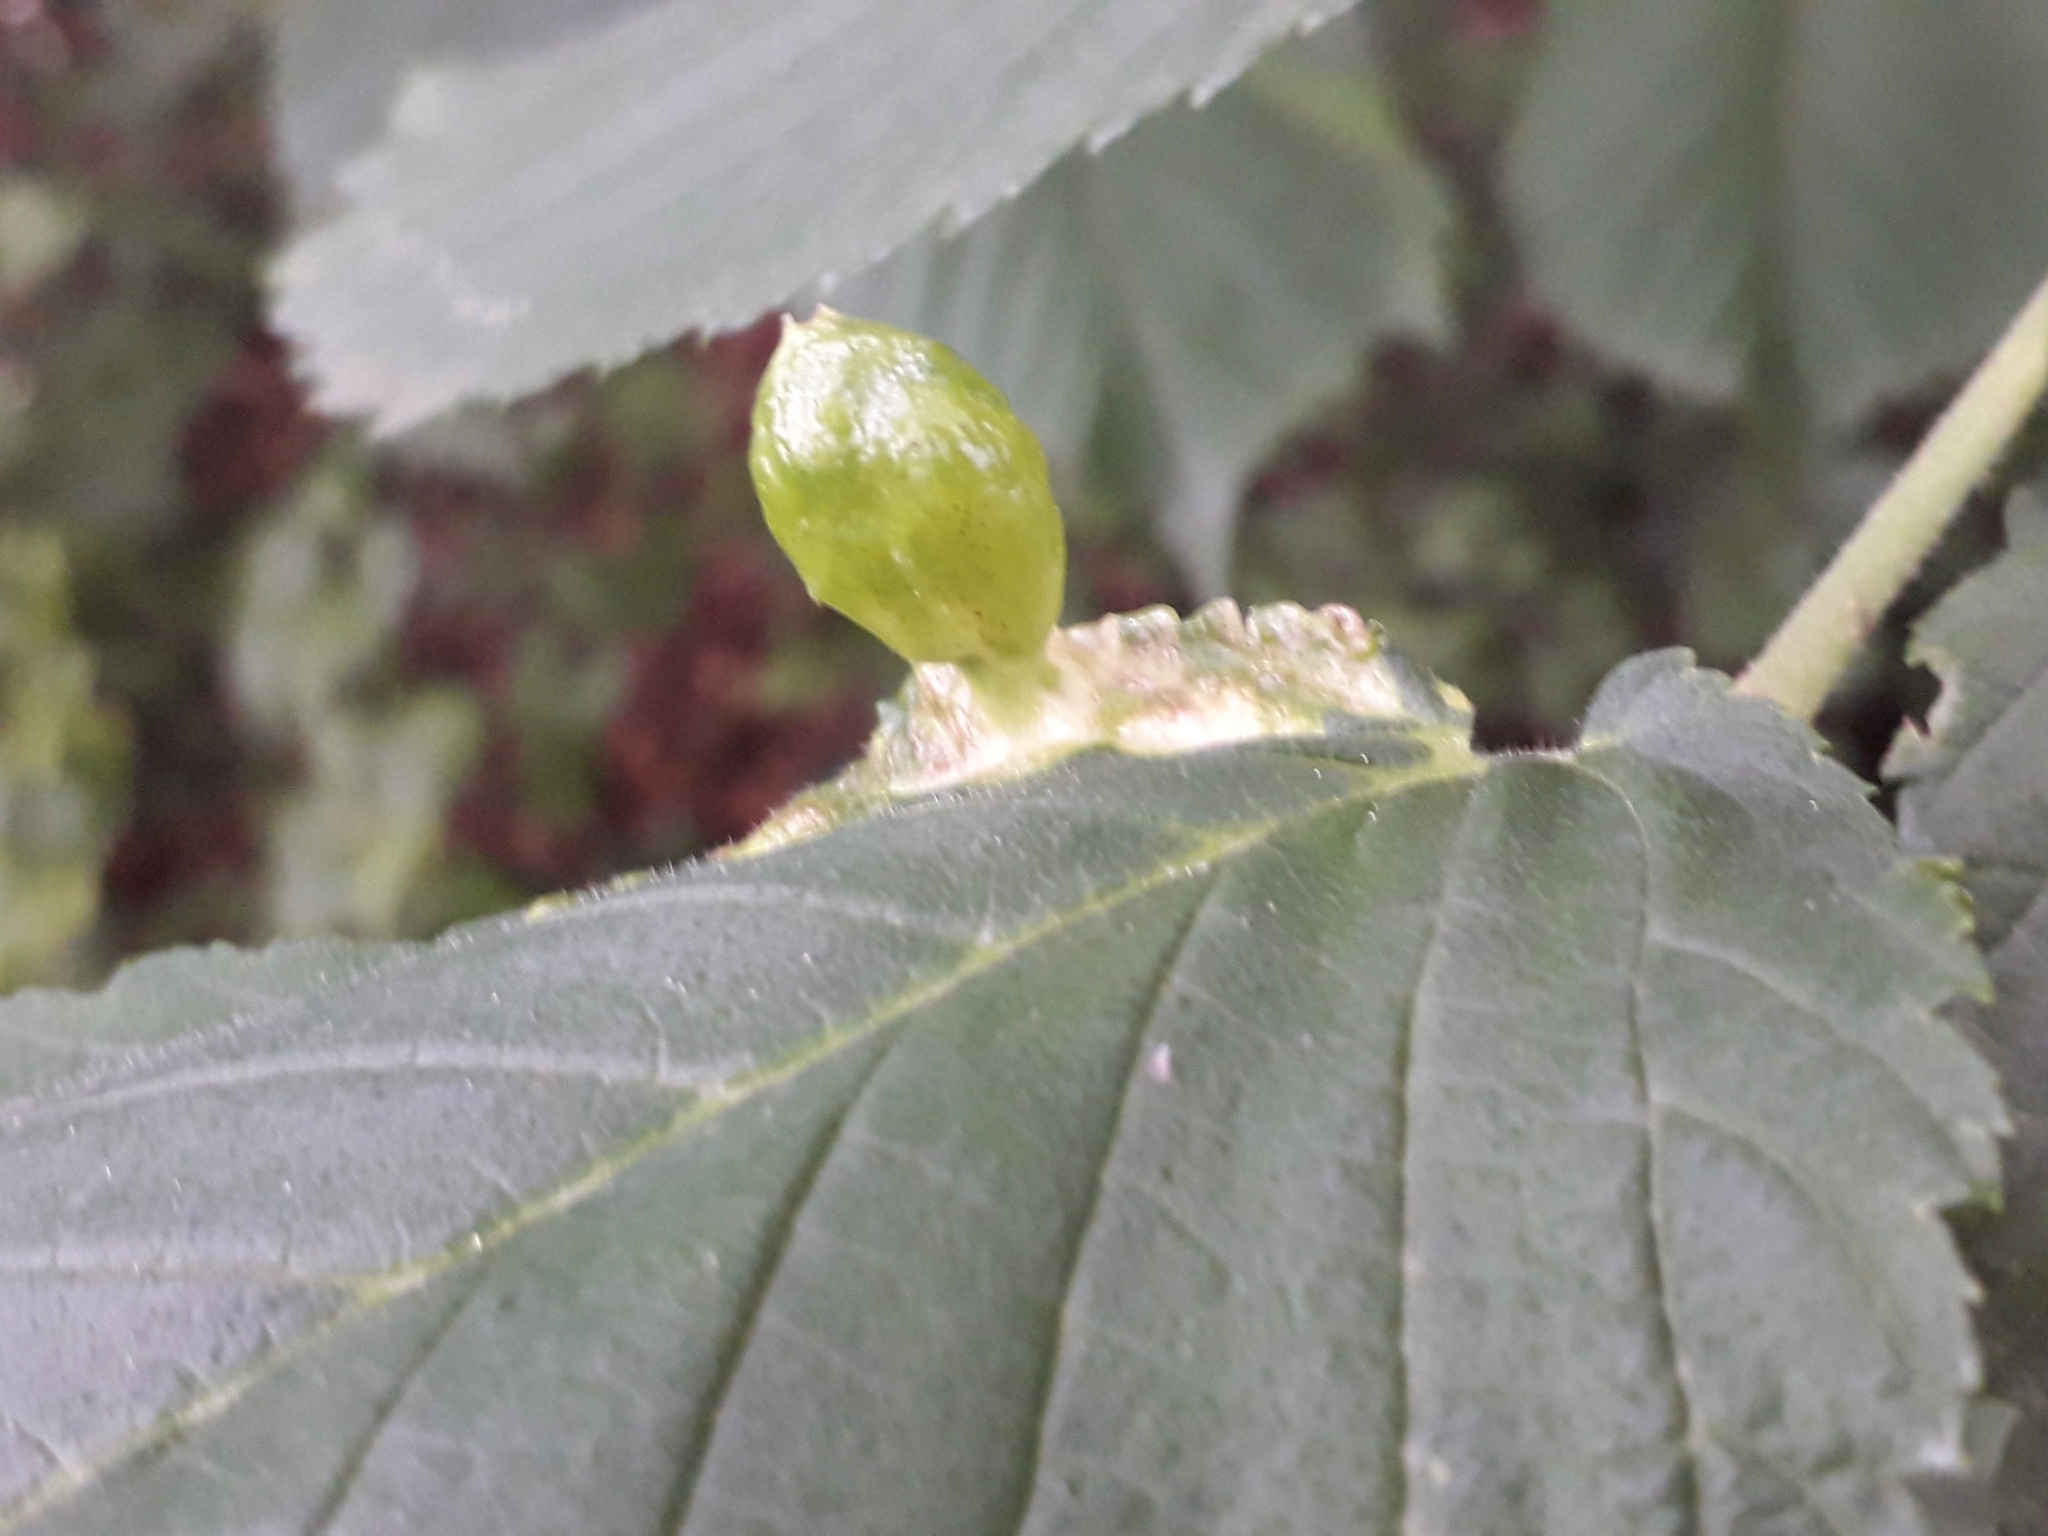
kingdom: Animalia
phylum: Arthropoda
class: Insecta
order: Hemiptera
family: Aphididae
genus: Tetraneura
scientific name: Tetraneura ulmi
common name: Aphid
